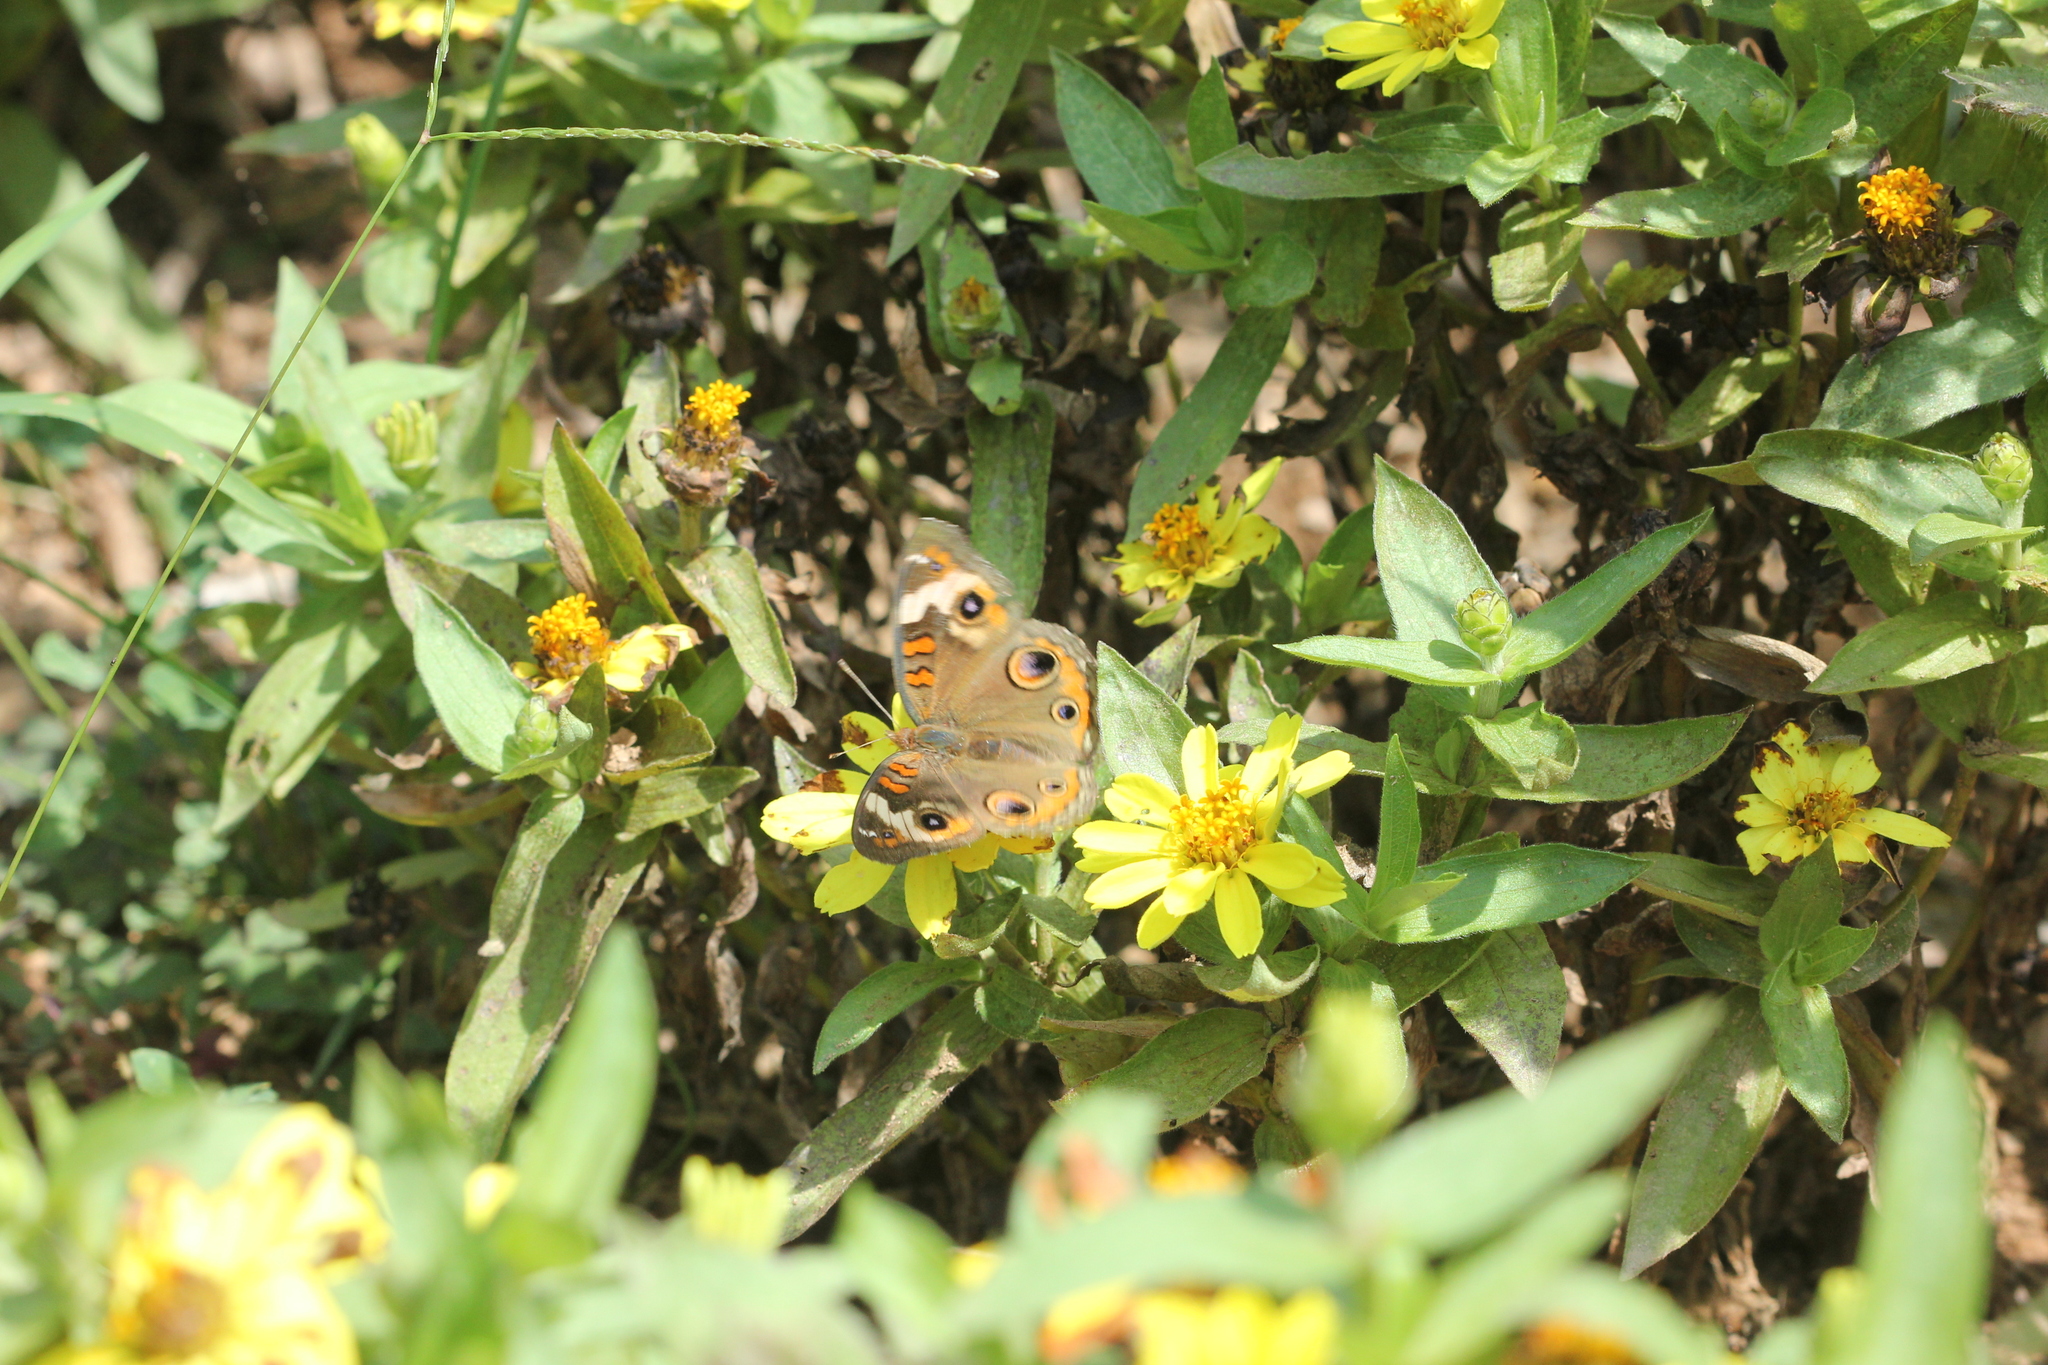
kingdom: Animalia
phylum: Arthropoda
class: Insecta
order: Lepidoptera
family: Nymphalidae
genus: Junonia
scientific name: Junonia coenia
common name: Common buckeye
